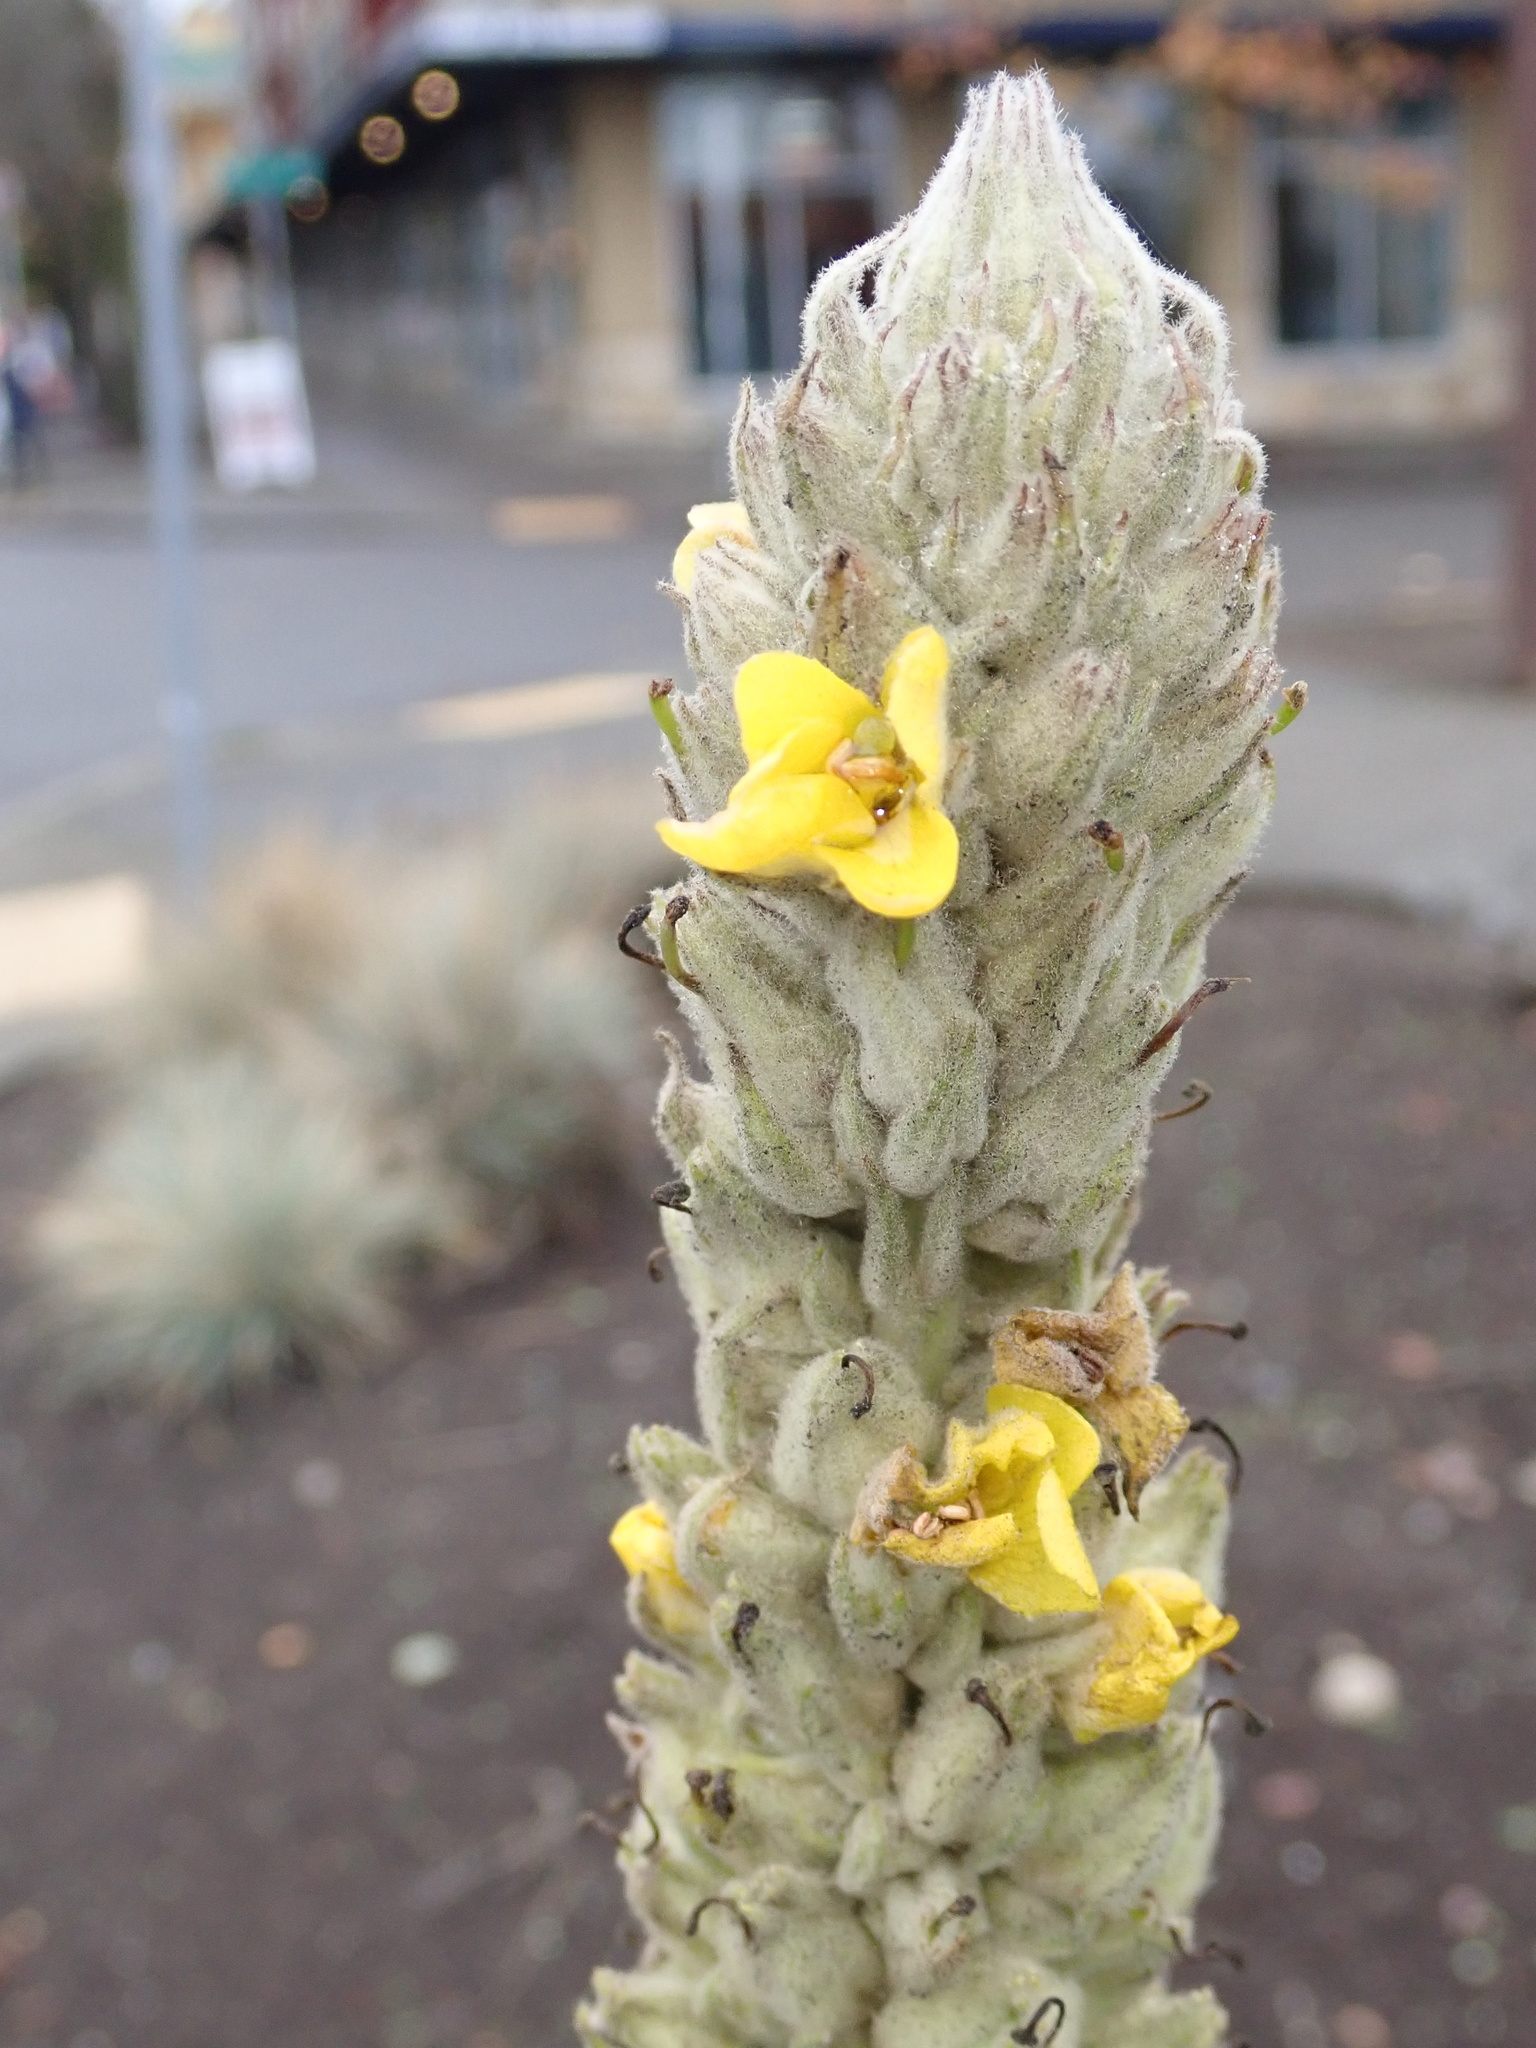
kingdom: Plantae
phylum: Tracheophyta
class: Magnoliopsida
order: Lamiales
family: Scrophulariaceae
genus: Verbascum
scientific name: Verbascum thapsus
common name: Common mullein
